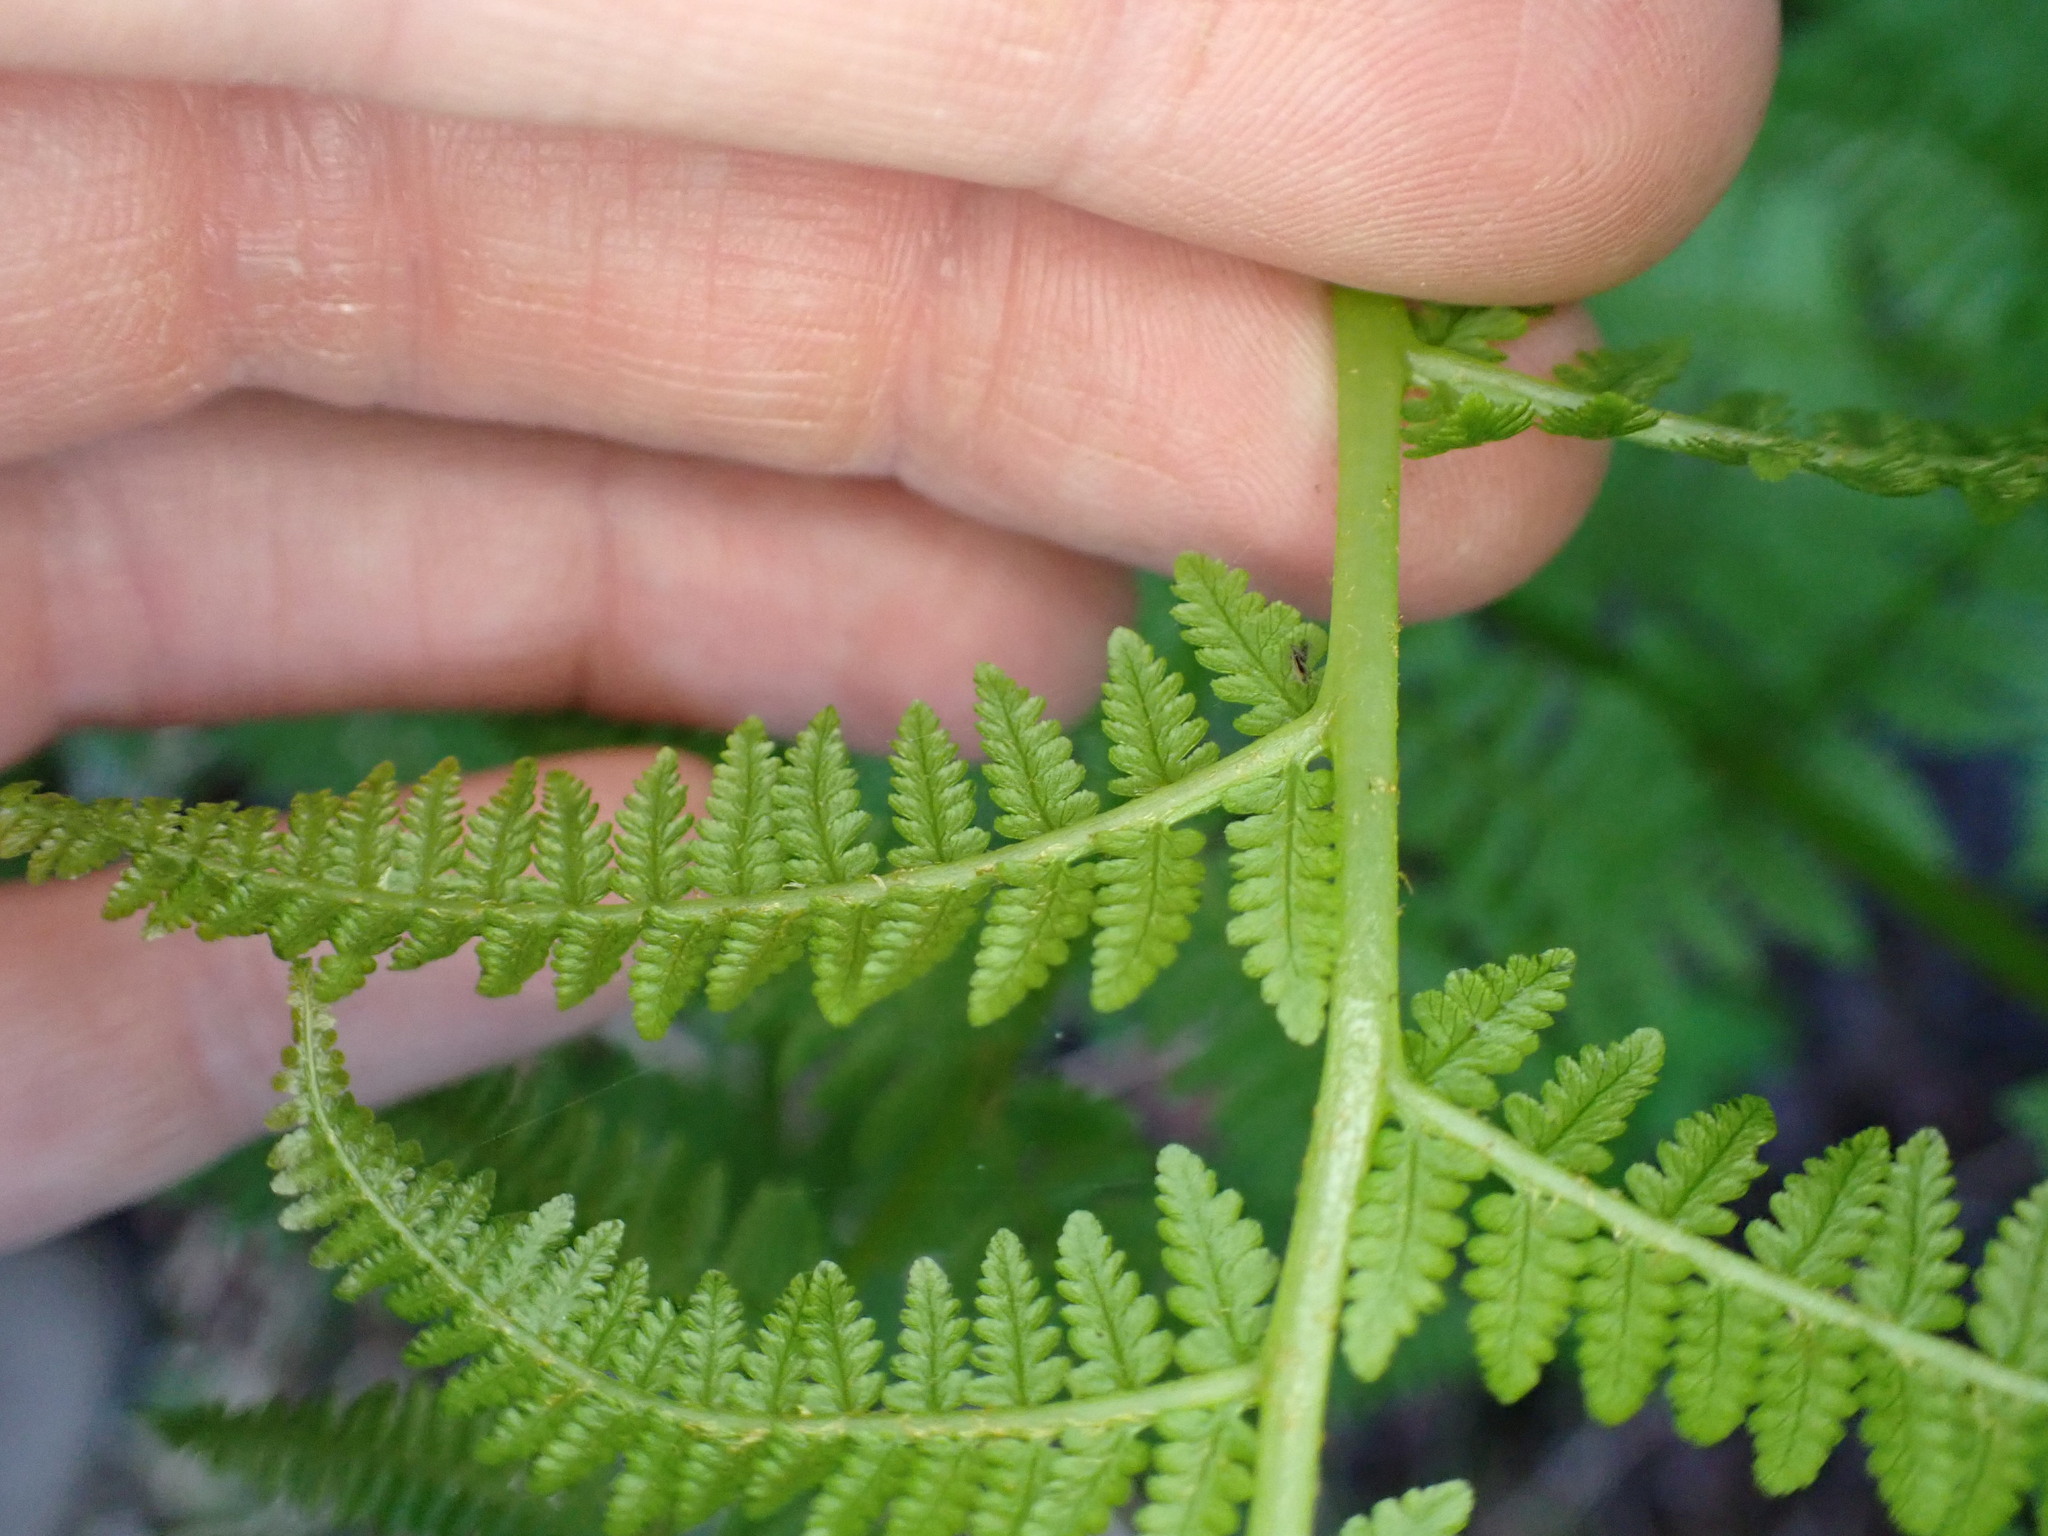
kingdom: Plantae
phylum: Tracheophyta
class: Polypodiopsida
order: Polypodiales
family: Athyriaceae
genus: Athyrium
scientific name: Athyrium filix-femina
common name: Lady fern
